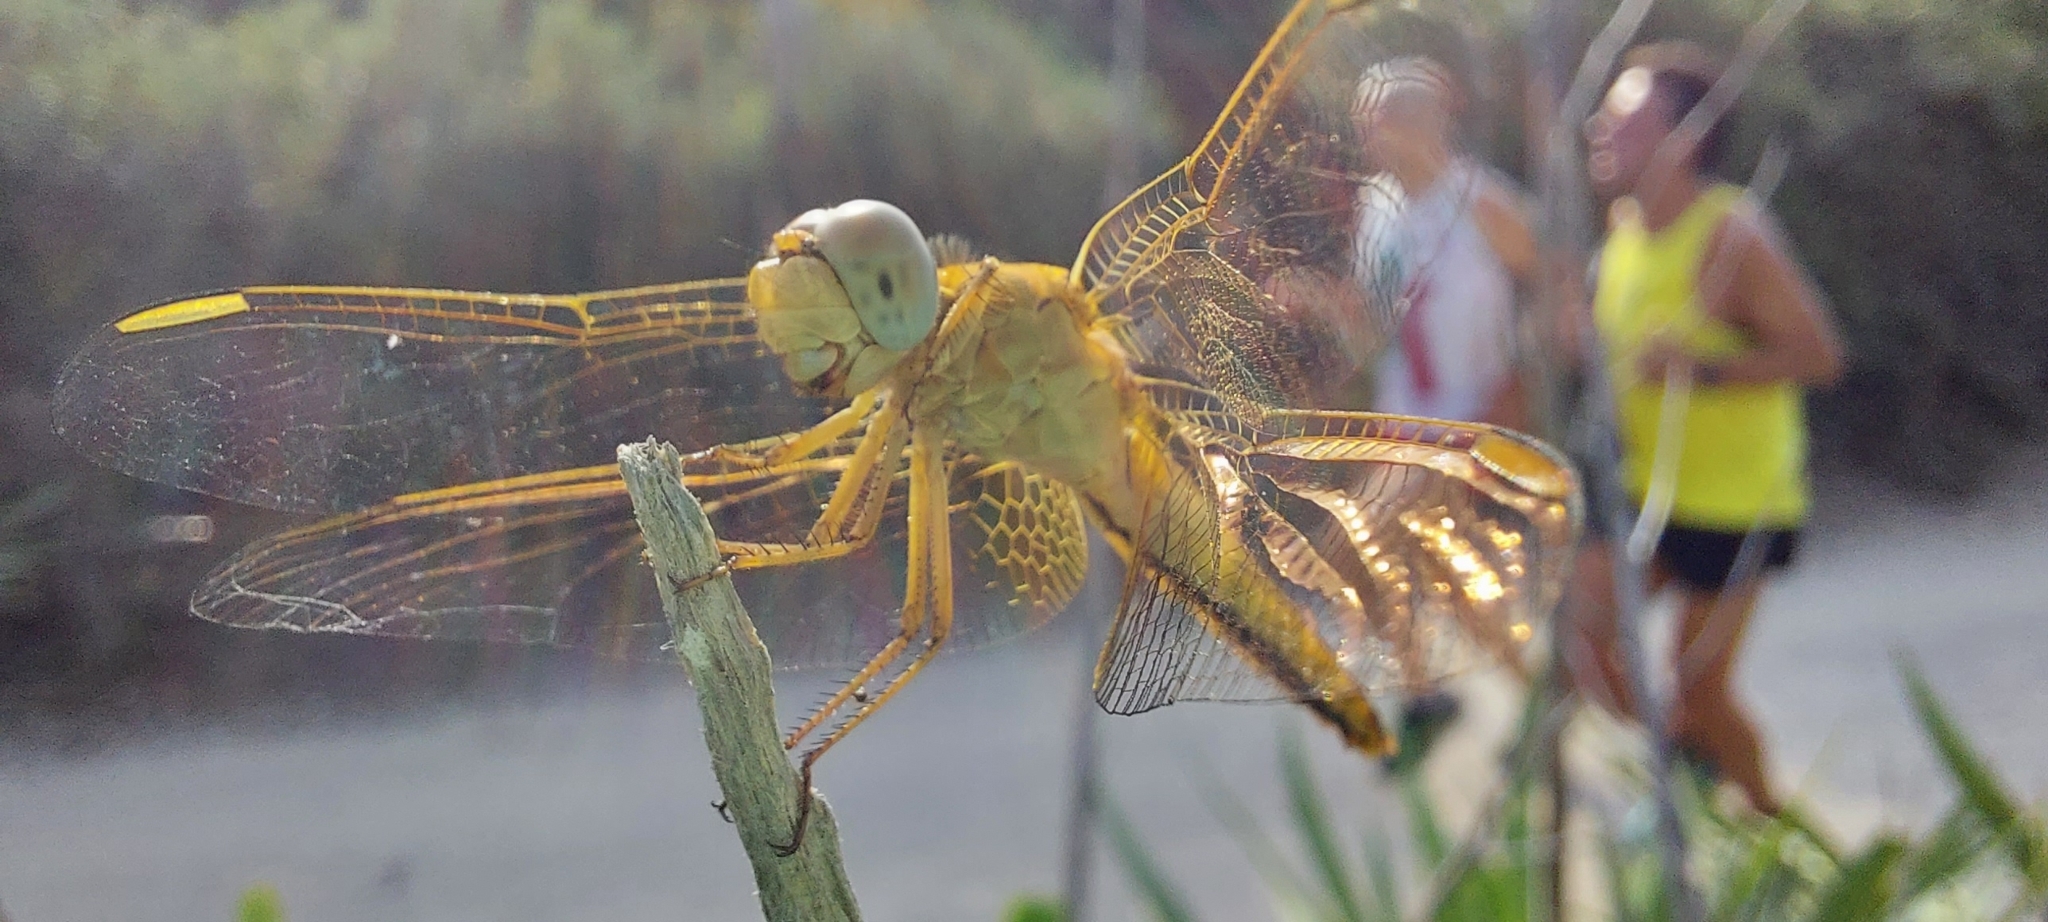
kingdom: Animalia
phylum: Arthropoda
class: Insecta
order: Odonata
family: Libellulidae
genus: Crocothemis
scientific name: Crocothemis erythraea
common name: Scarlet dragonfly
